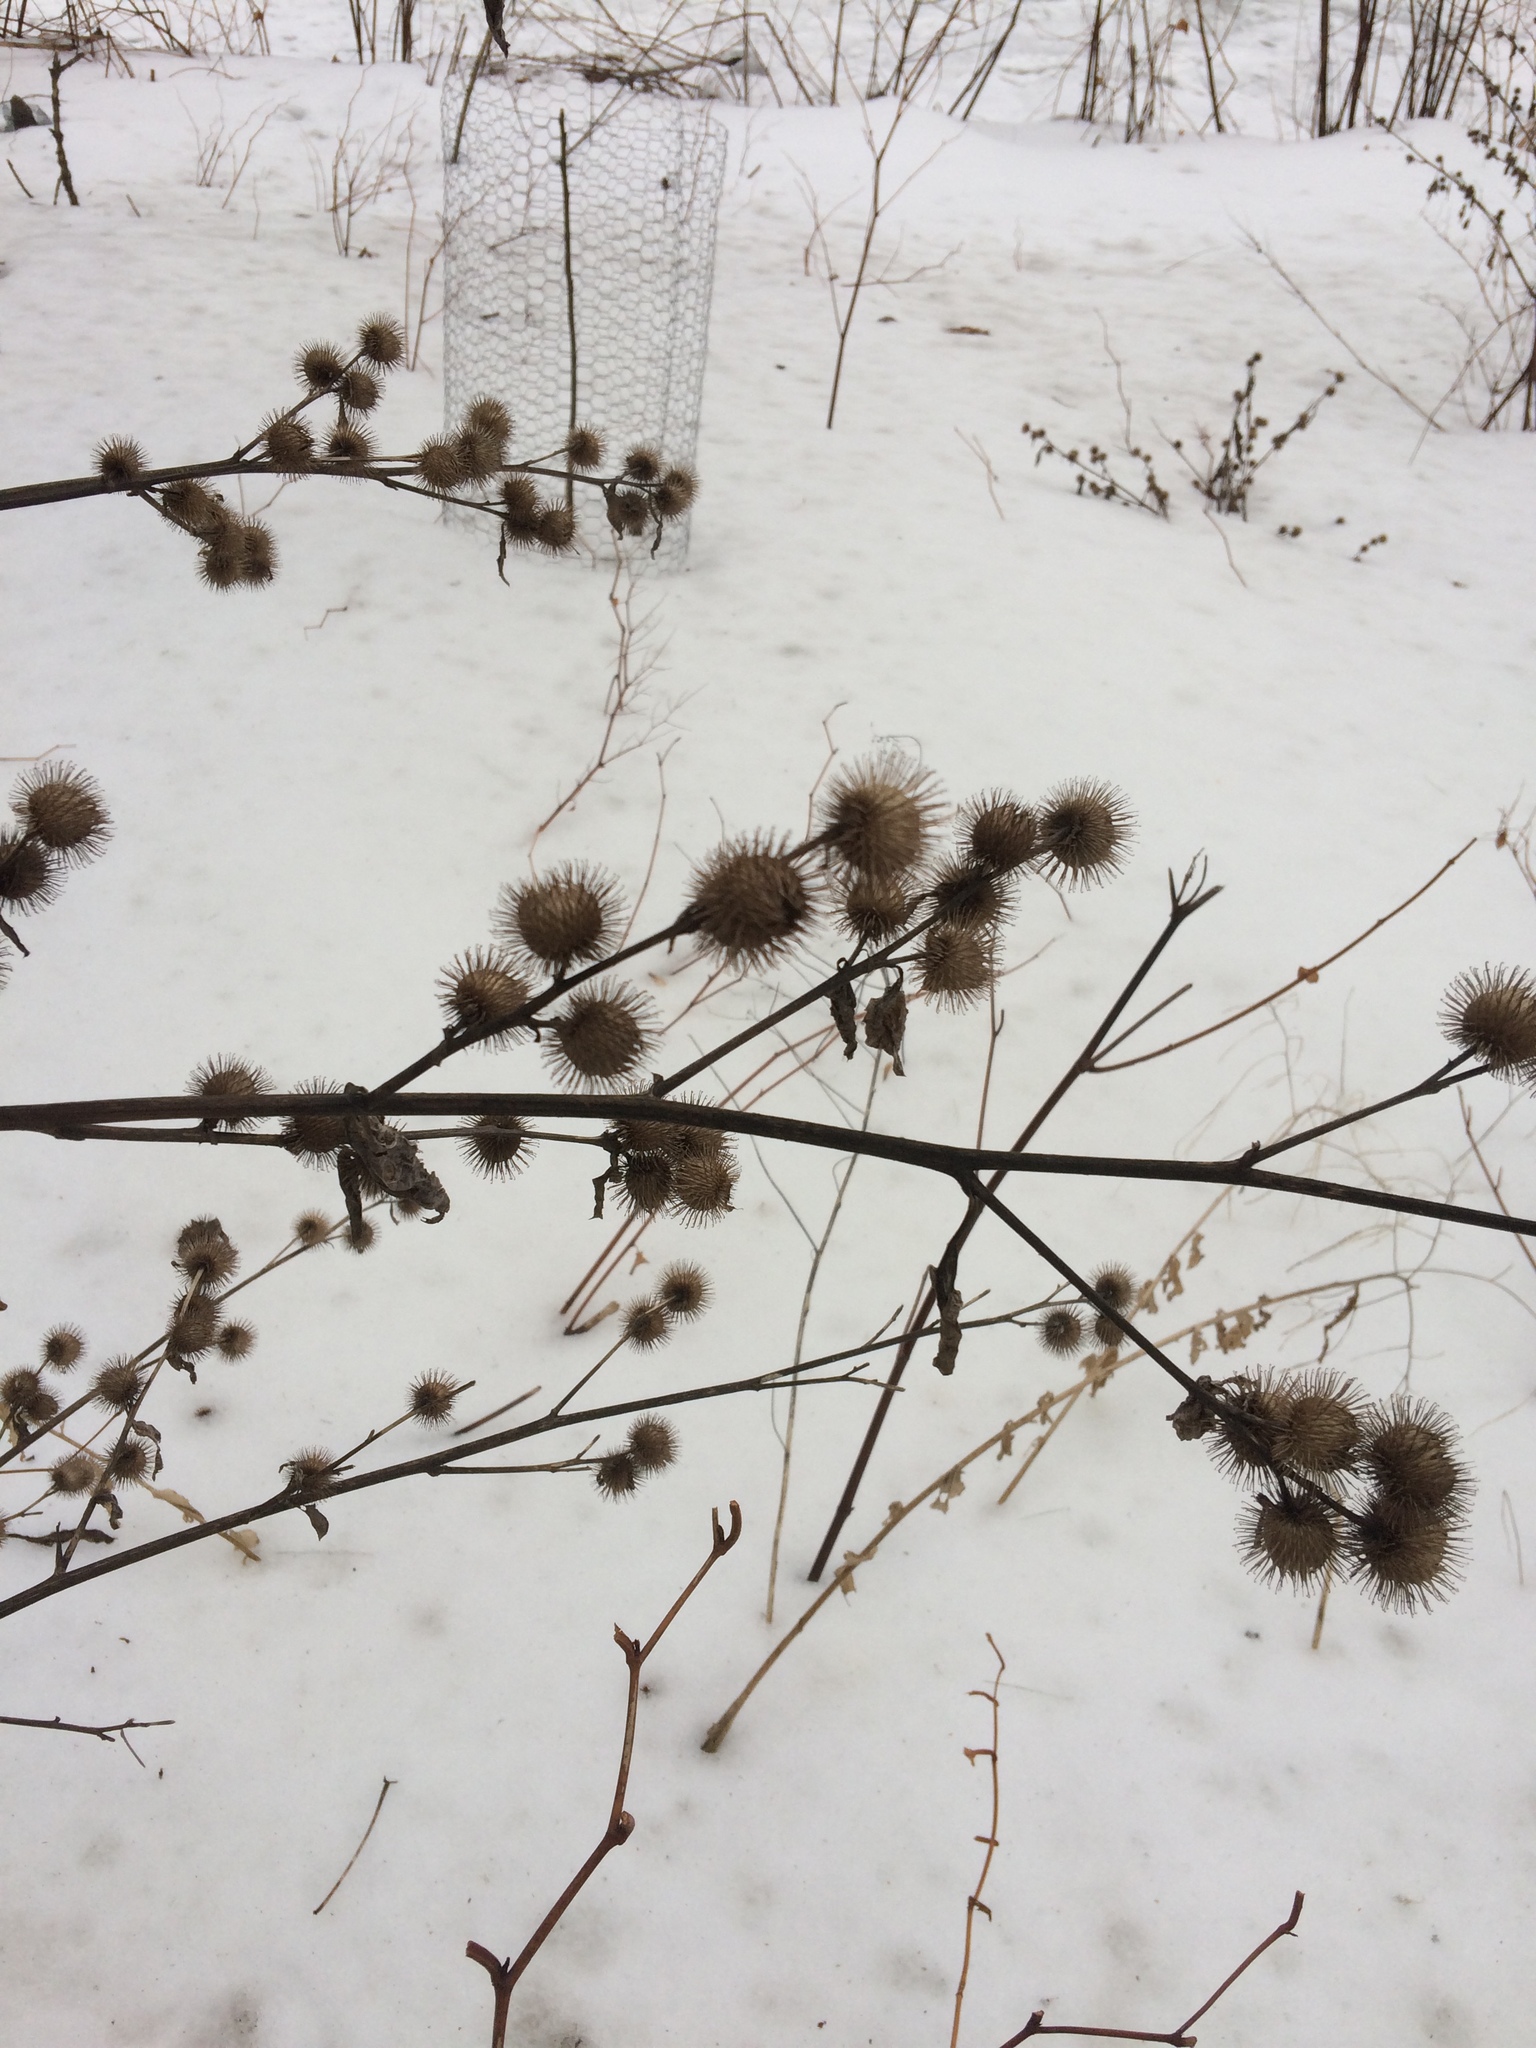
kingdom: Plantae
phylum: Tracheophyta
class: Magnoliopsida
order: Asterales
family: Asteraceae
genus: Arctium
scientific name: Arctium minus
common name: Lesser burdock
